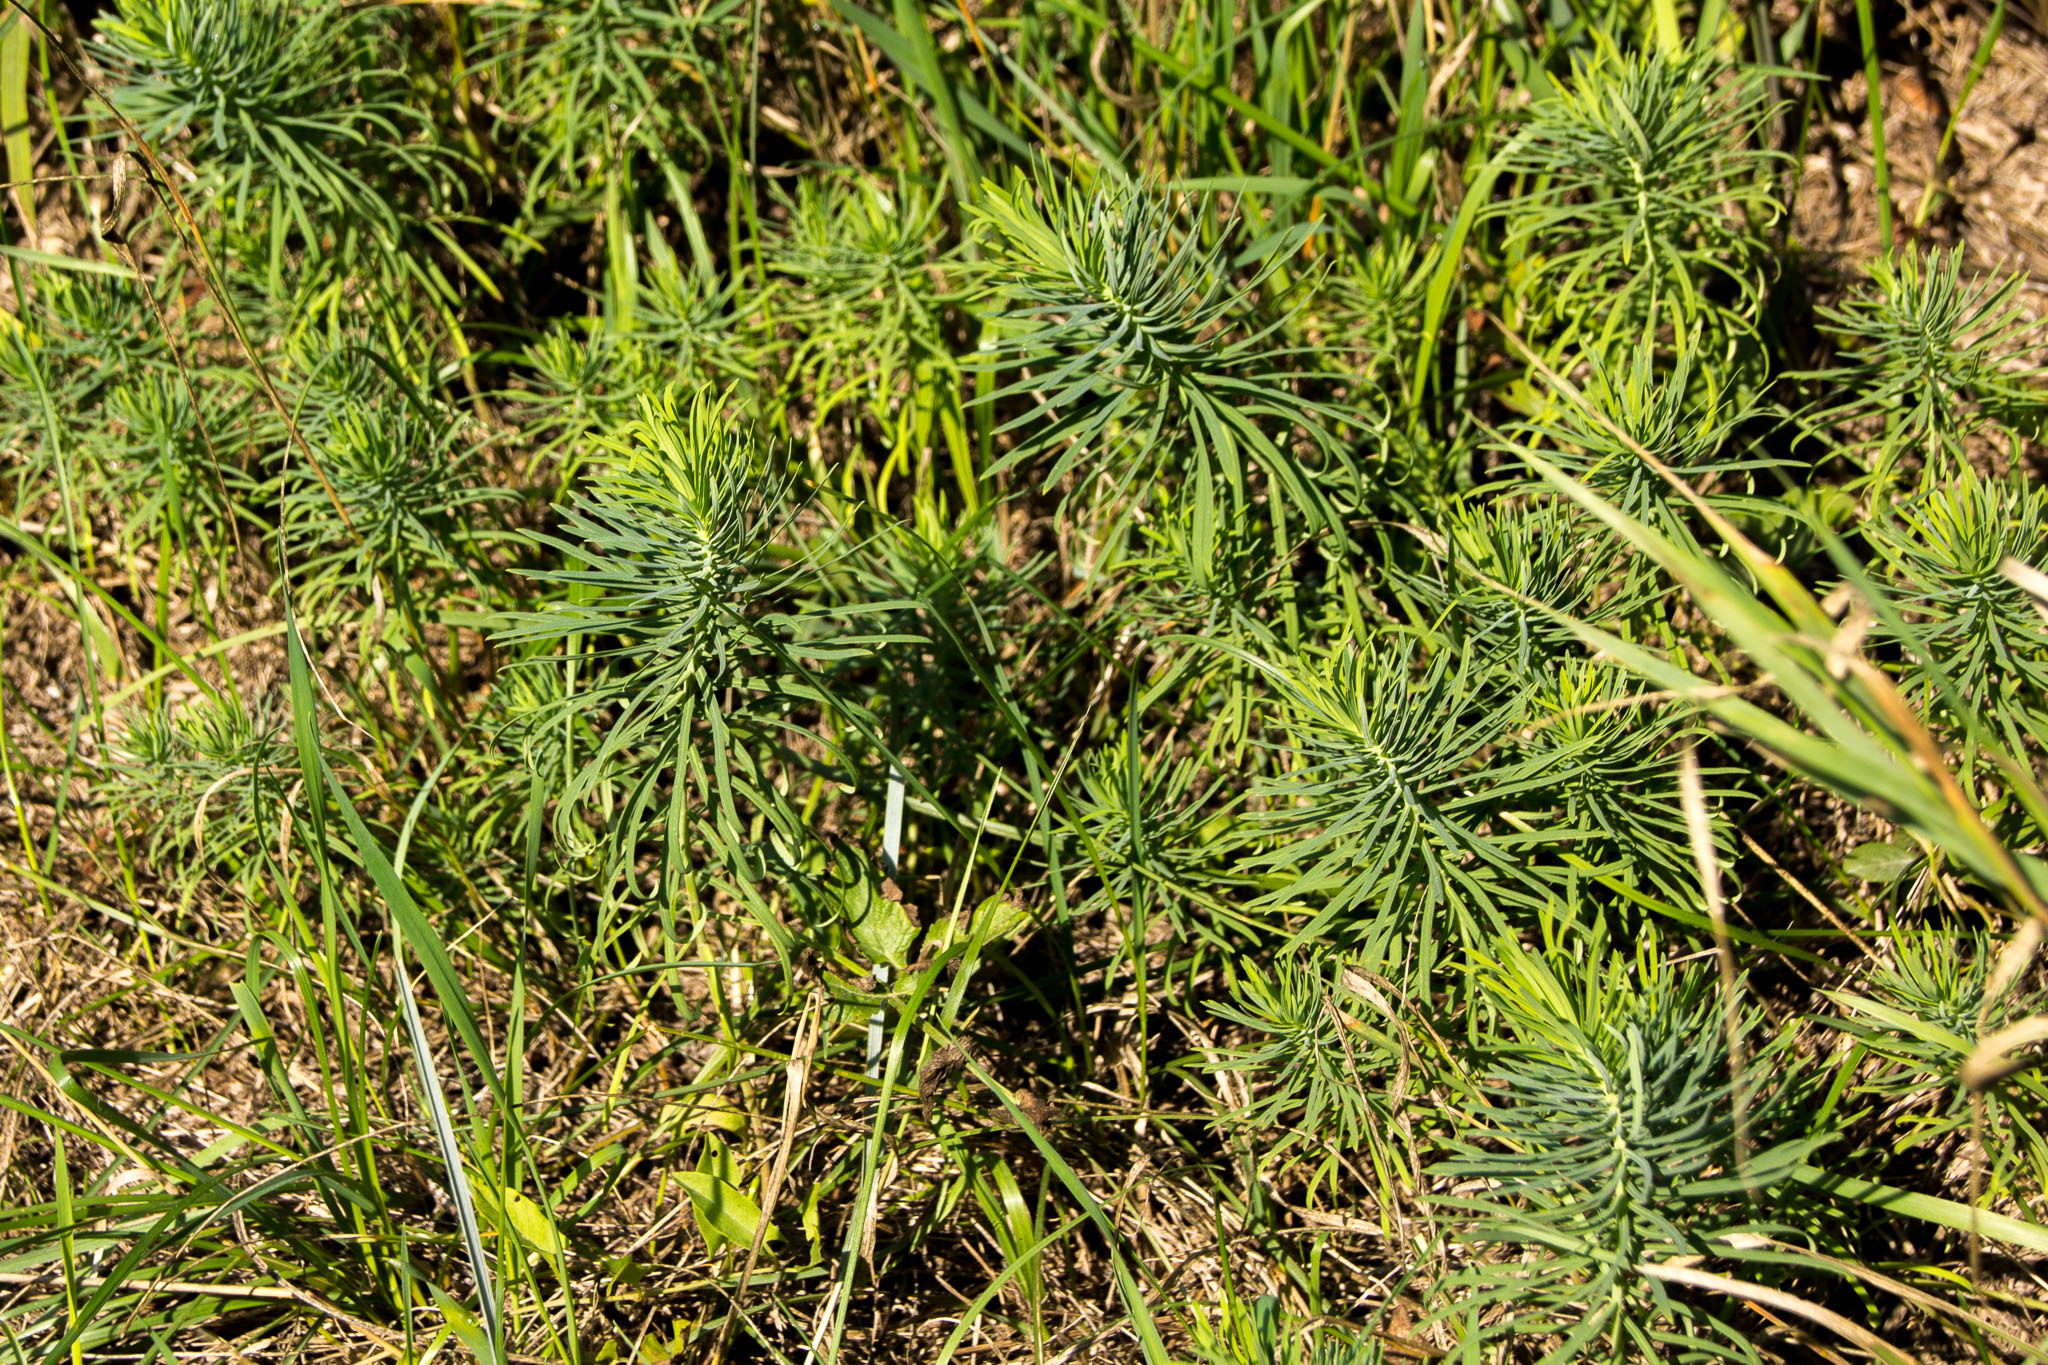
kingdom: Plantae
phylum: Tracheophyta
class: Magnoliopsida
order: Malpighiales
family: Euphorbiaceae
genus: Euphorbia
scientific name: Euphorbia cyparissias
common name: Cypress spurge
